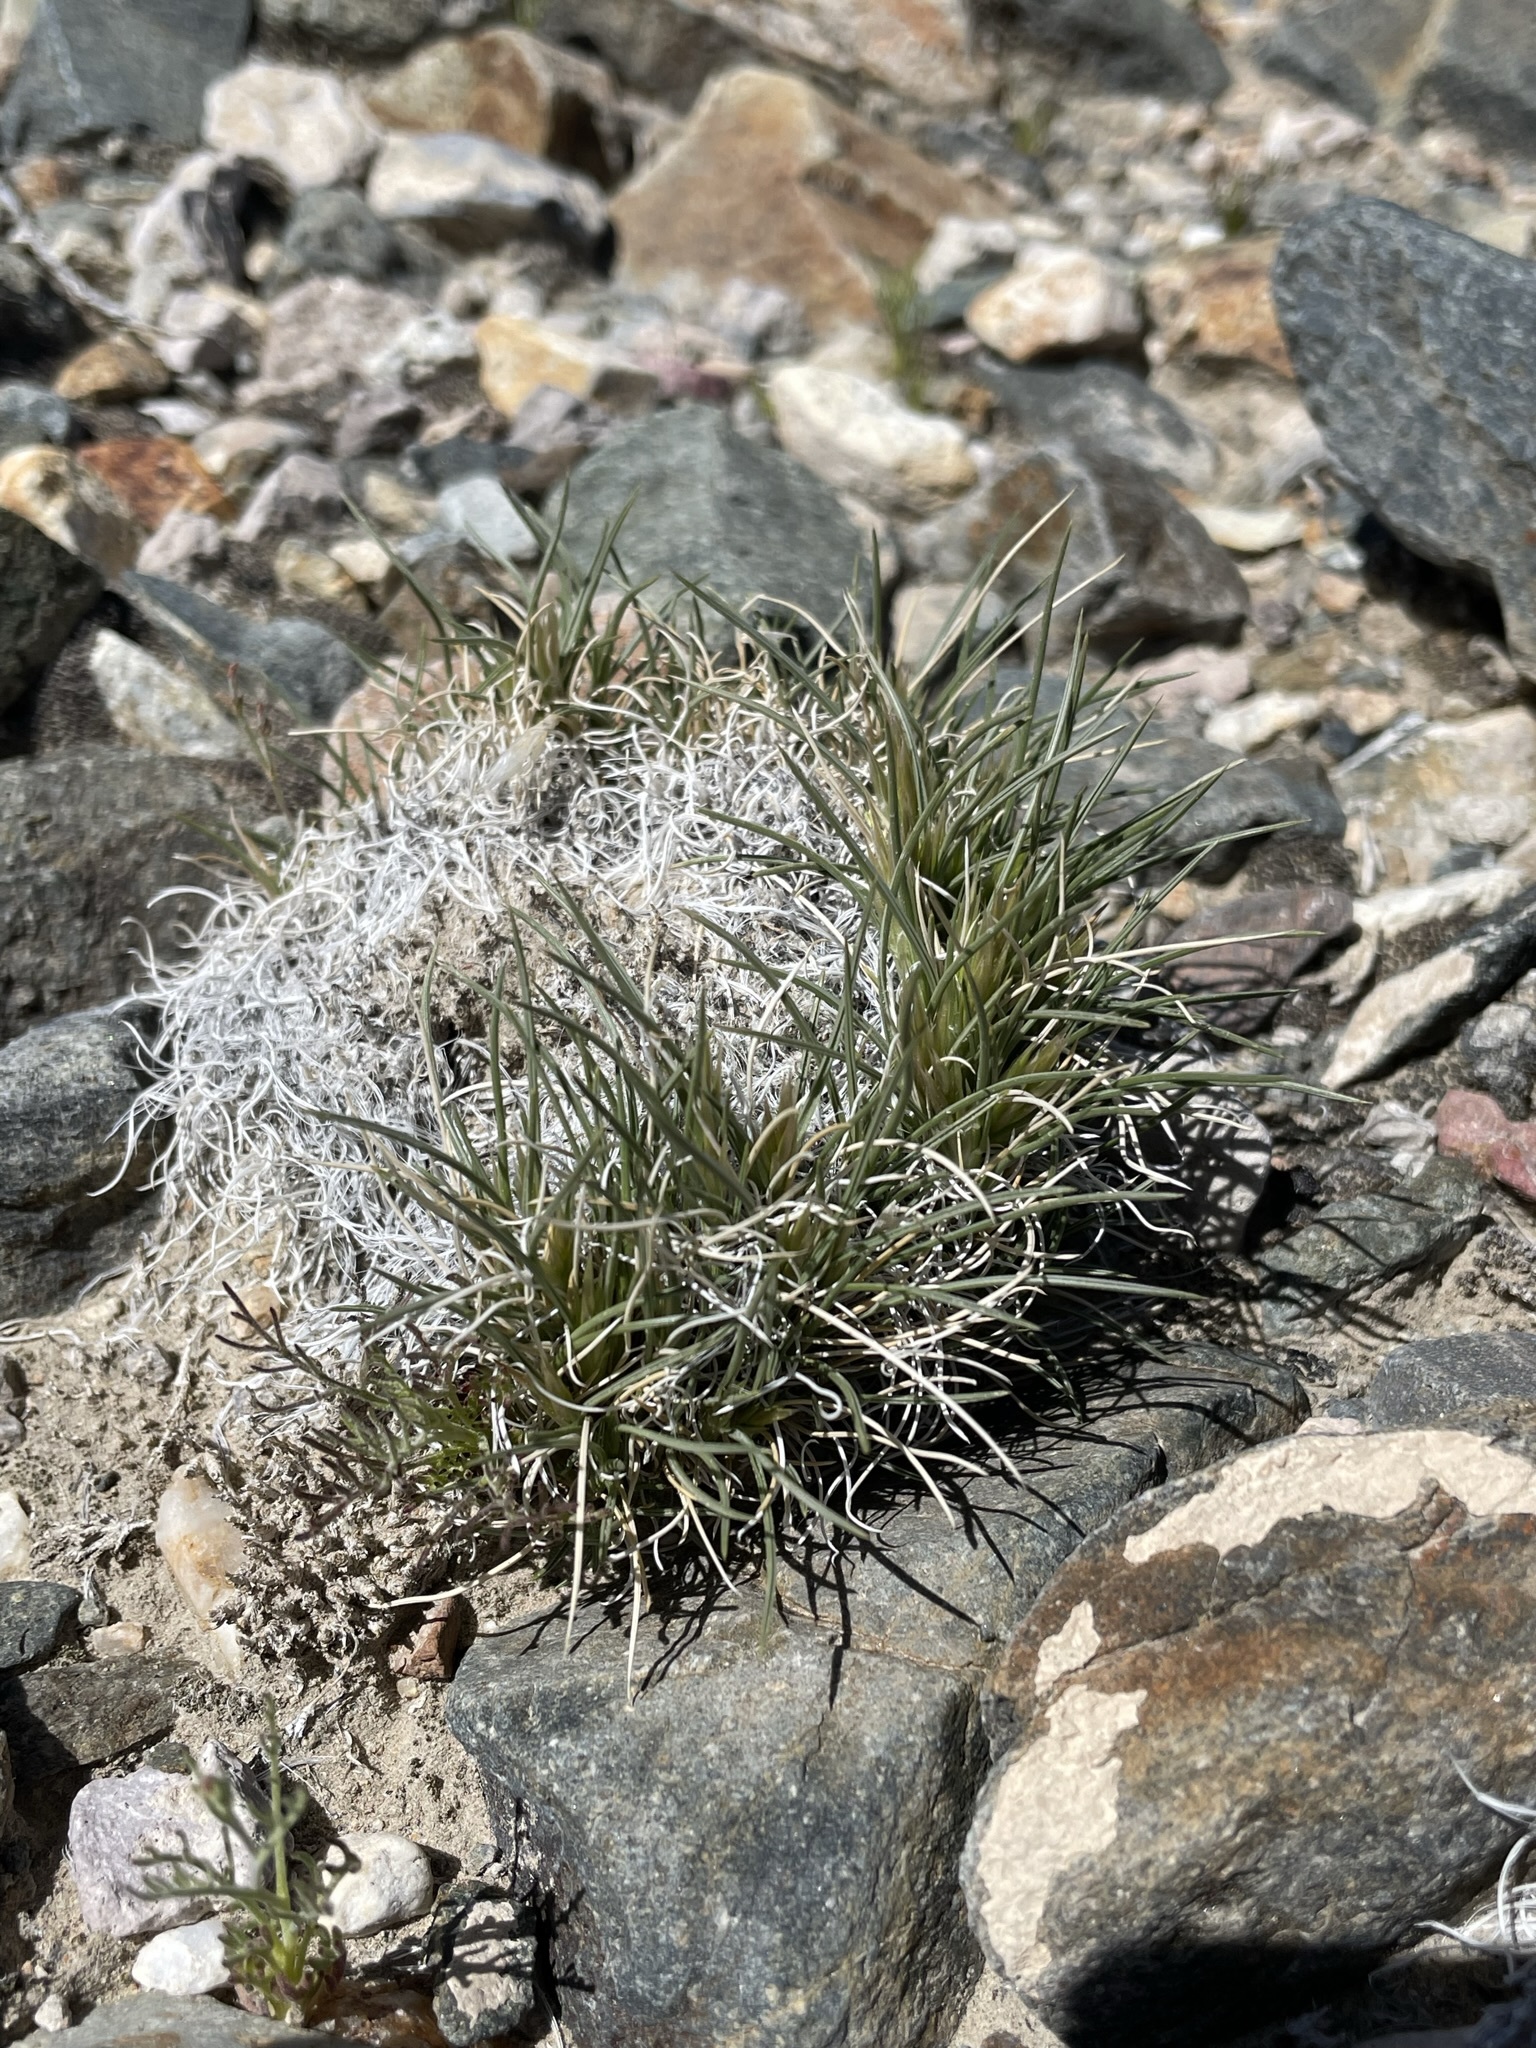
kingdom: Plantae
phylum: Tracheophyta
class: Liliopsida
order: Poales
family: Poaceae
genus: Blepharidachne
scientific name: Blepharidachne kingii
